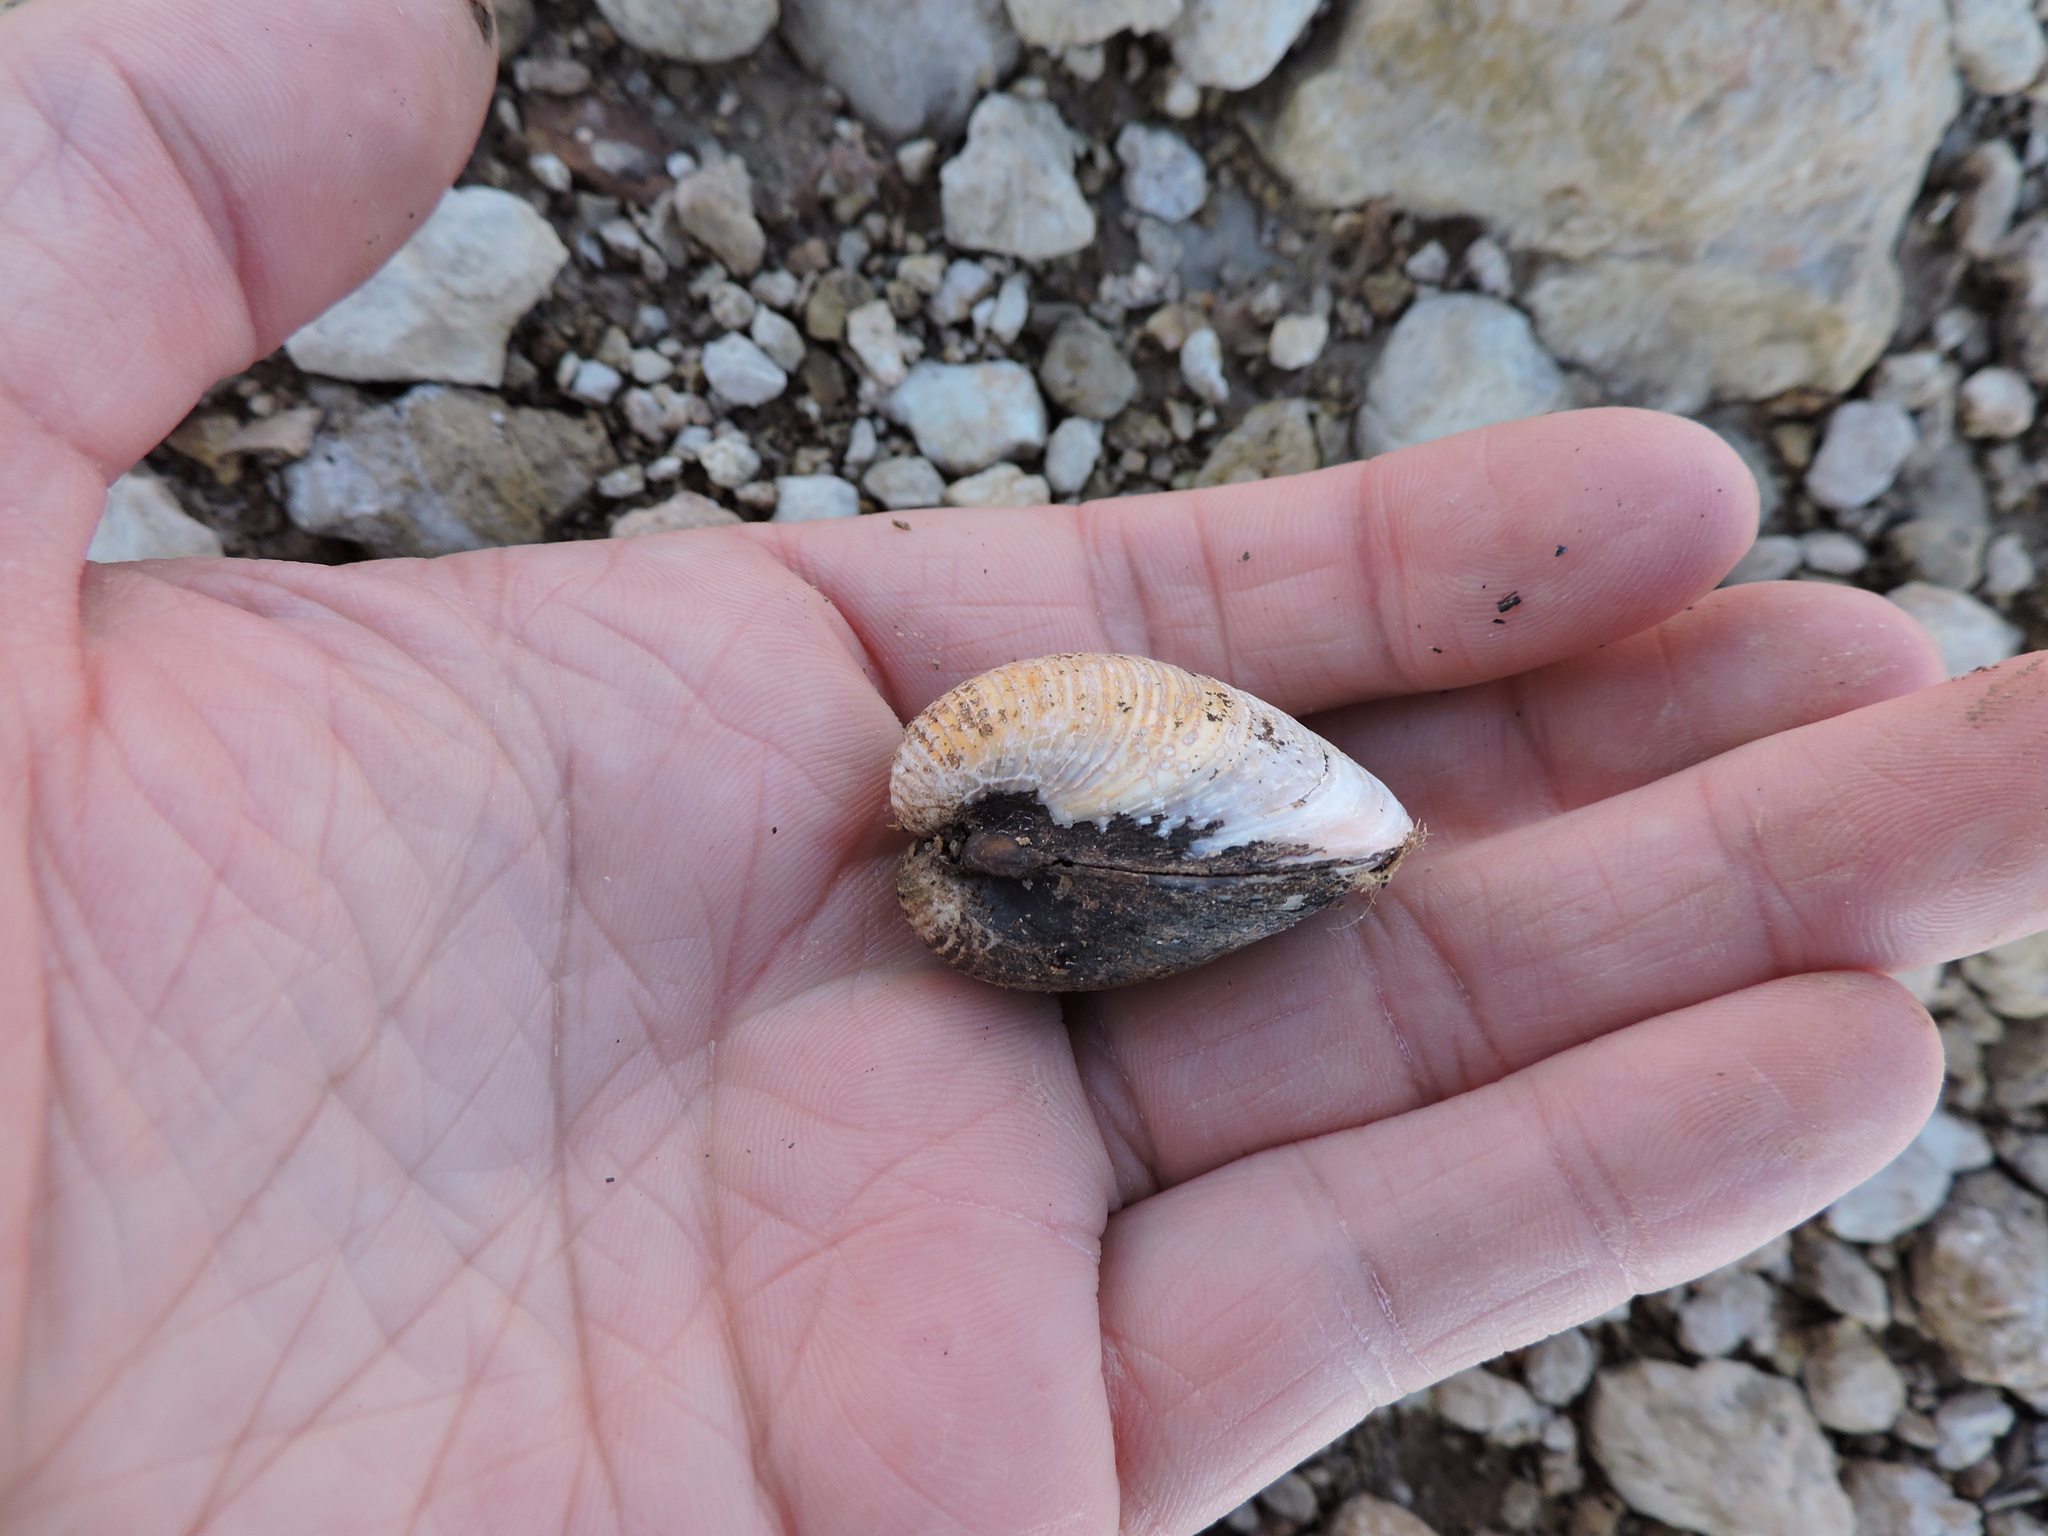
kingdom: Animalia
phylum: Mollusca
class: Bivalvia
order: Venerida
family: Cyrenidae
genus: Corbicula
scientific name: Corbicula fluminea
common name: Asian clam
